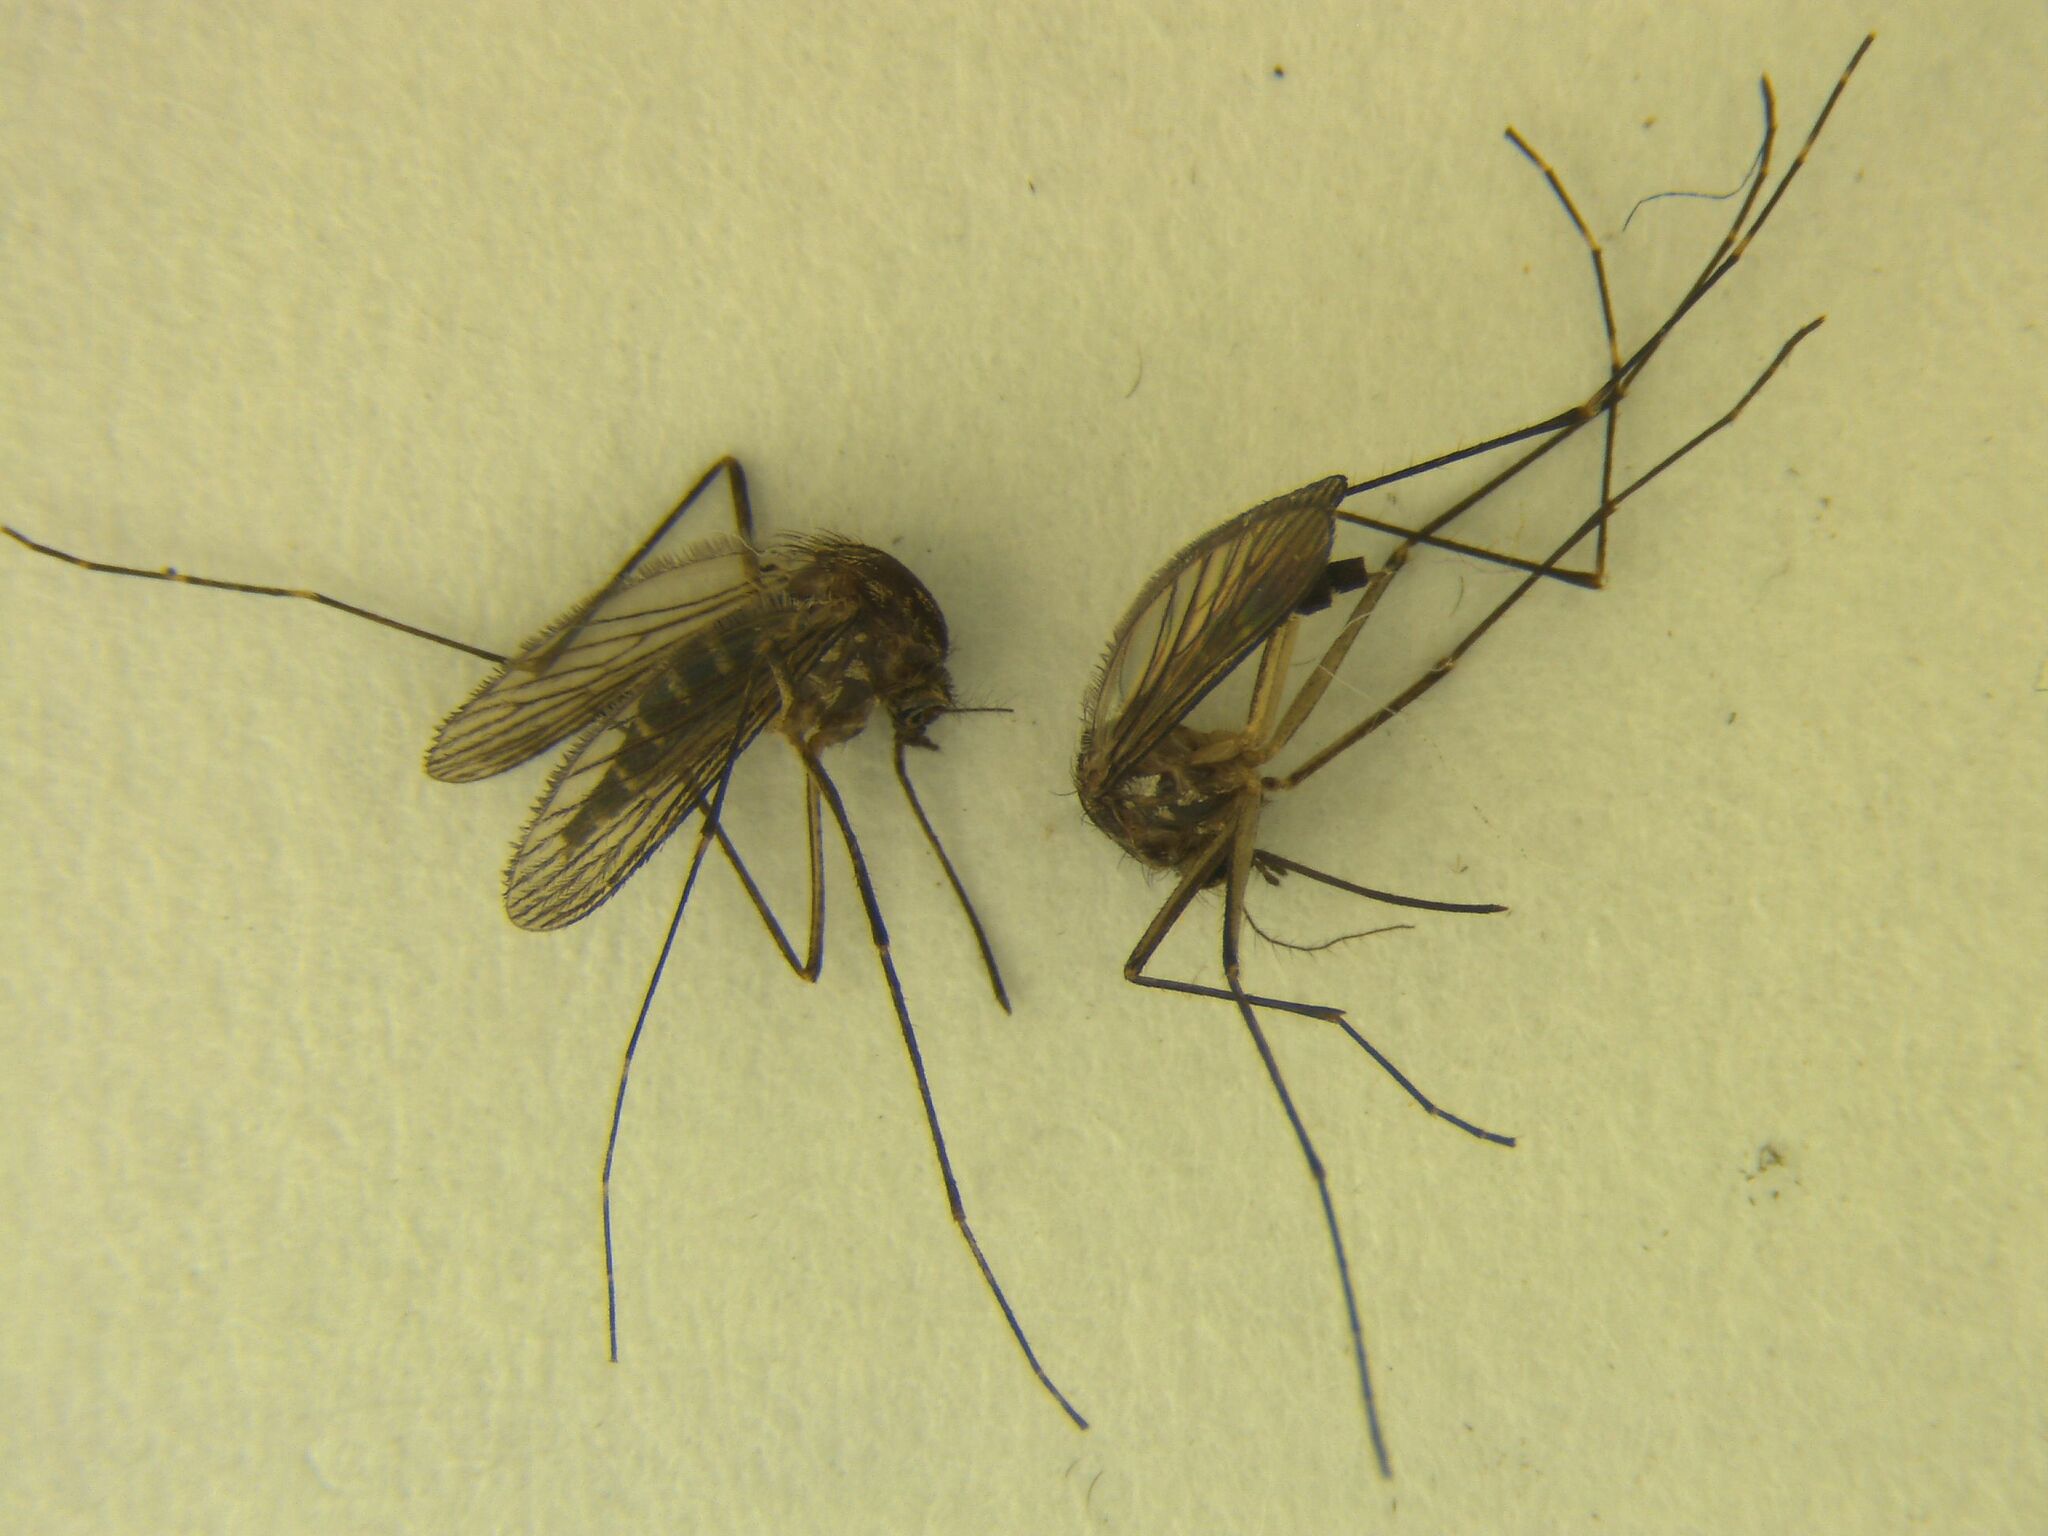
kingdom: Animalia
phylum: Arthropoda
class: Insecta
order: Diptera
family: Culicidae
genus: Aedes
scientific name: Aedes antipodeus
